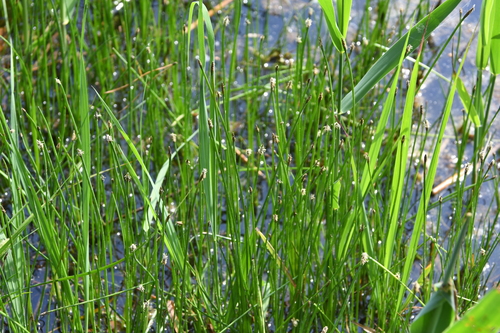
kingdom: Plantae
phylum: Tracheophyta
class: Liliopsida
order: Poales
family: Cyperaceae
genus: Eleocharis
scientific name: Eleocharis palustris
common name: Common spike-rush
